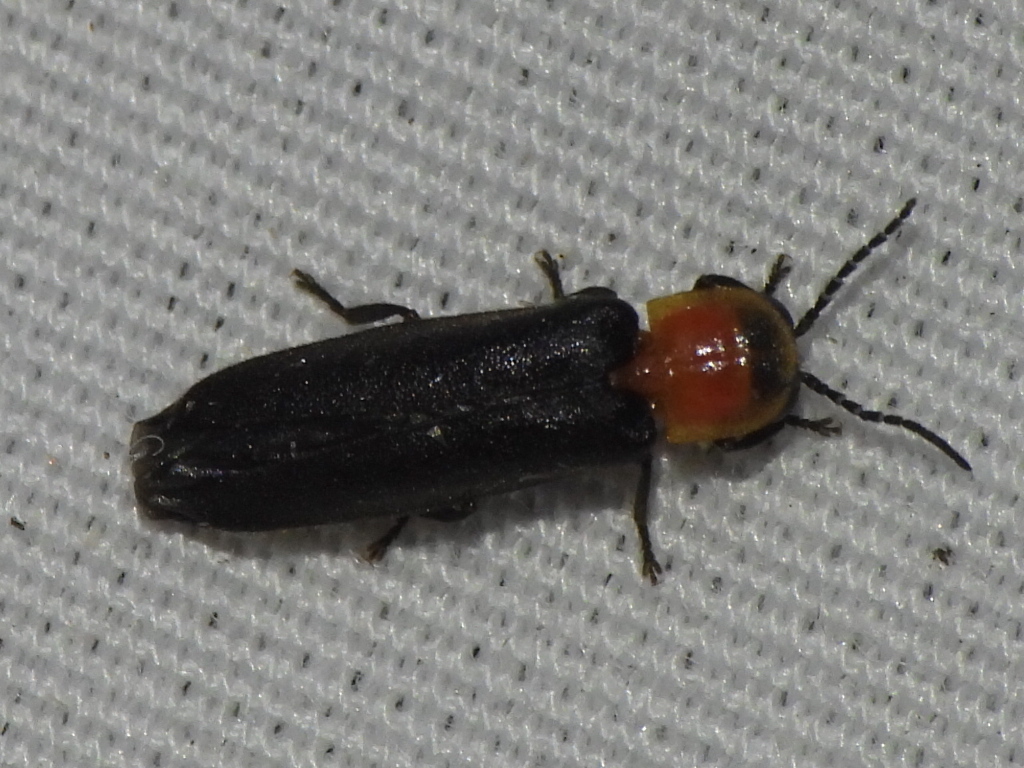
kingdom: Animalia
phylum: Arthropoda
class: Insecta
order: Coleoptera
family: Lampyridae
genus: Photinus
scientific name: Photinus stellaris
